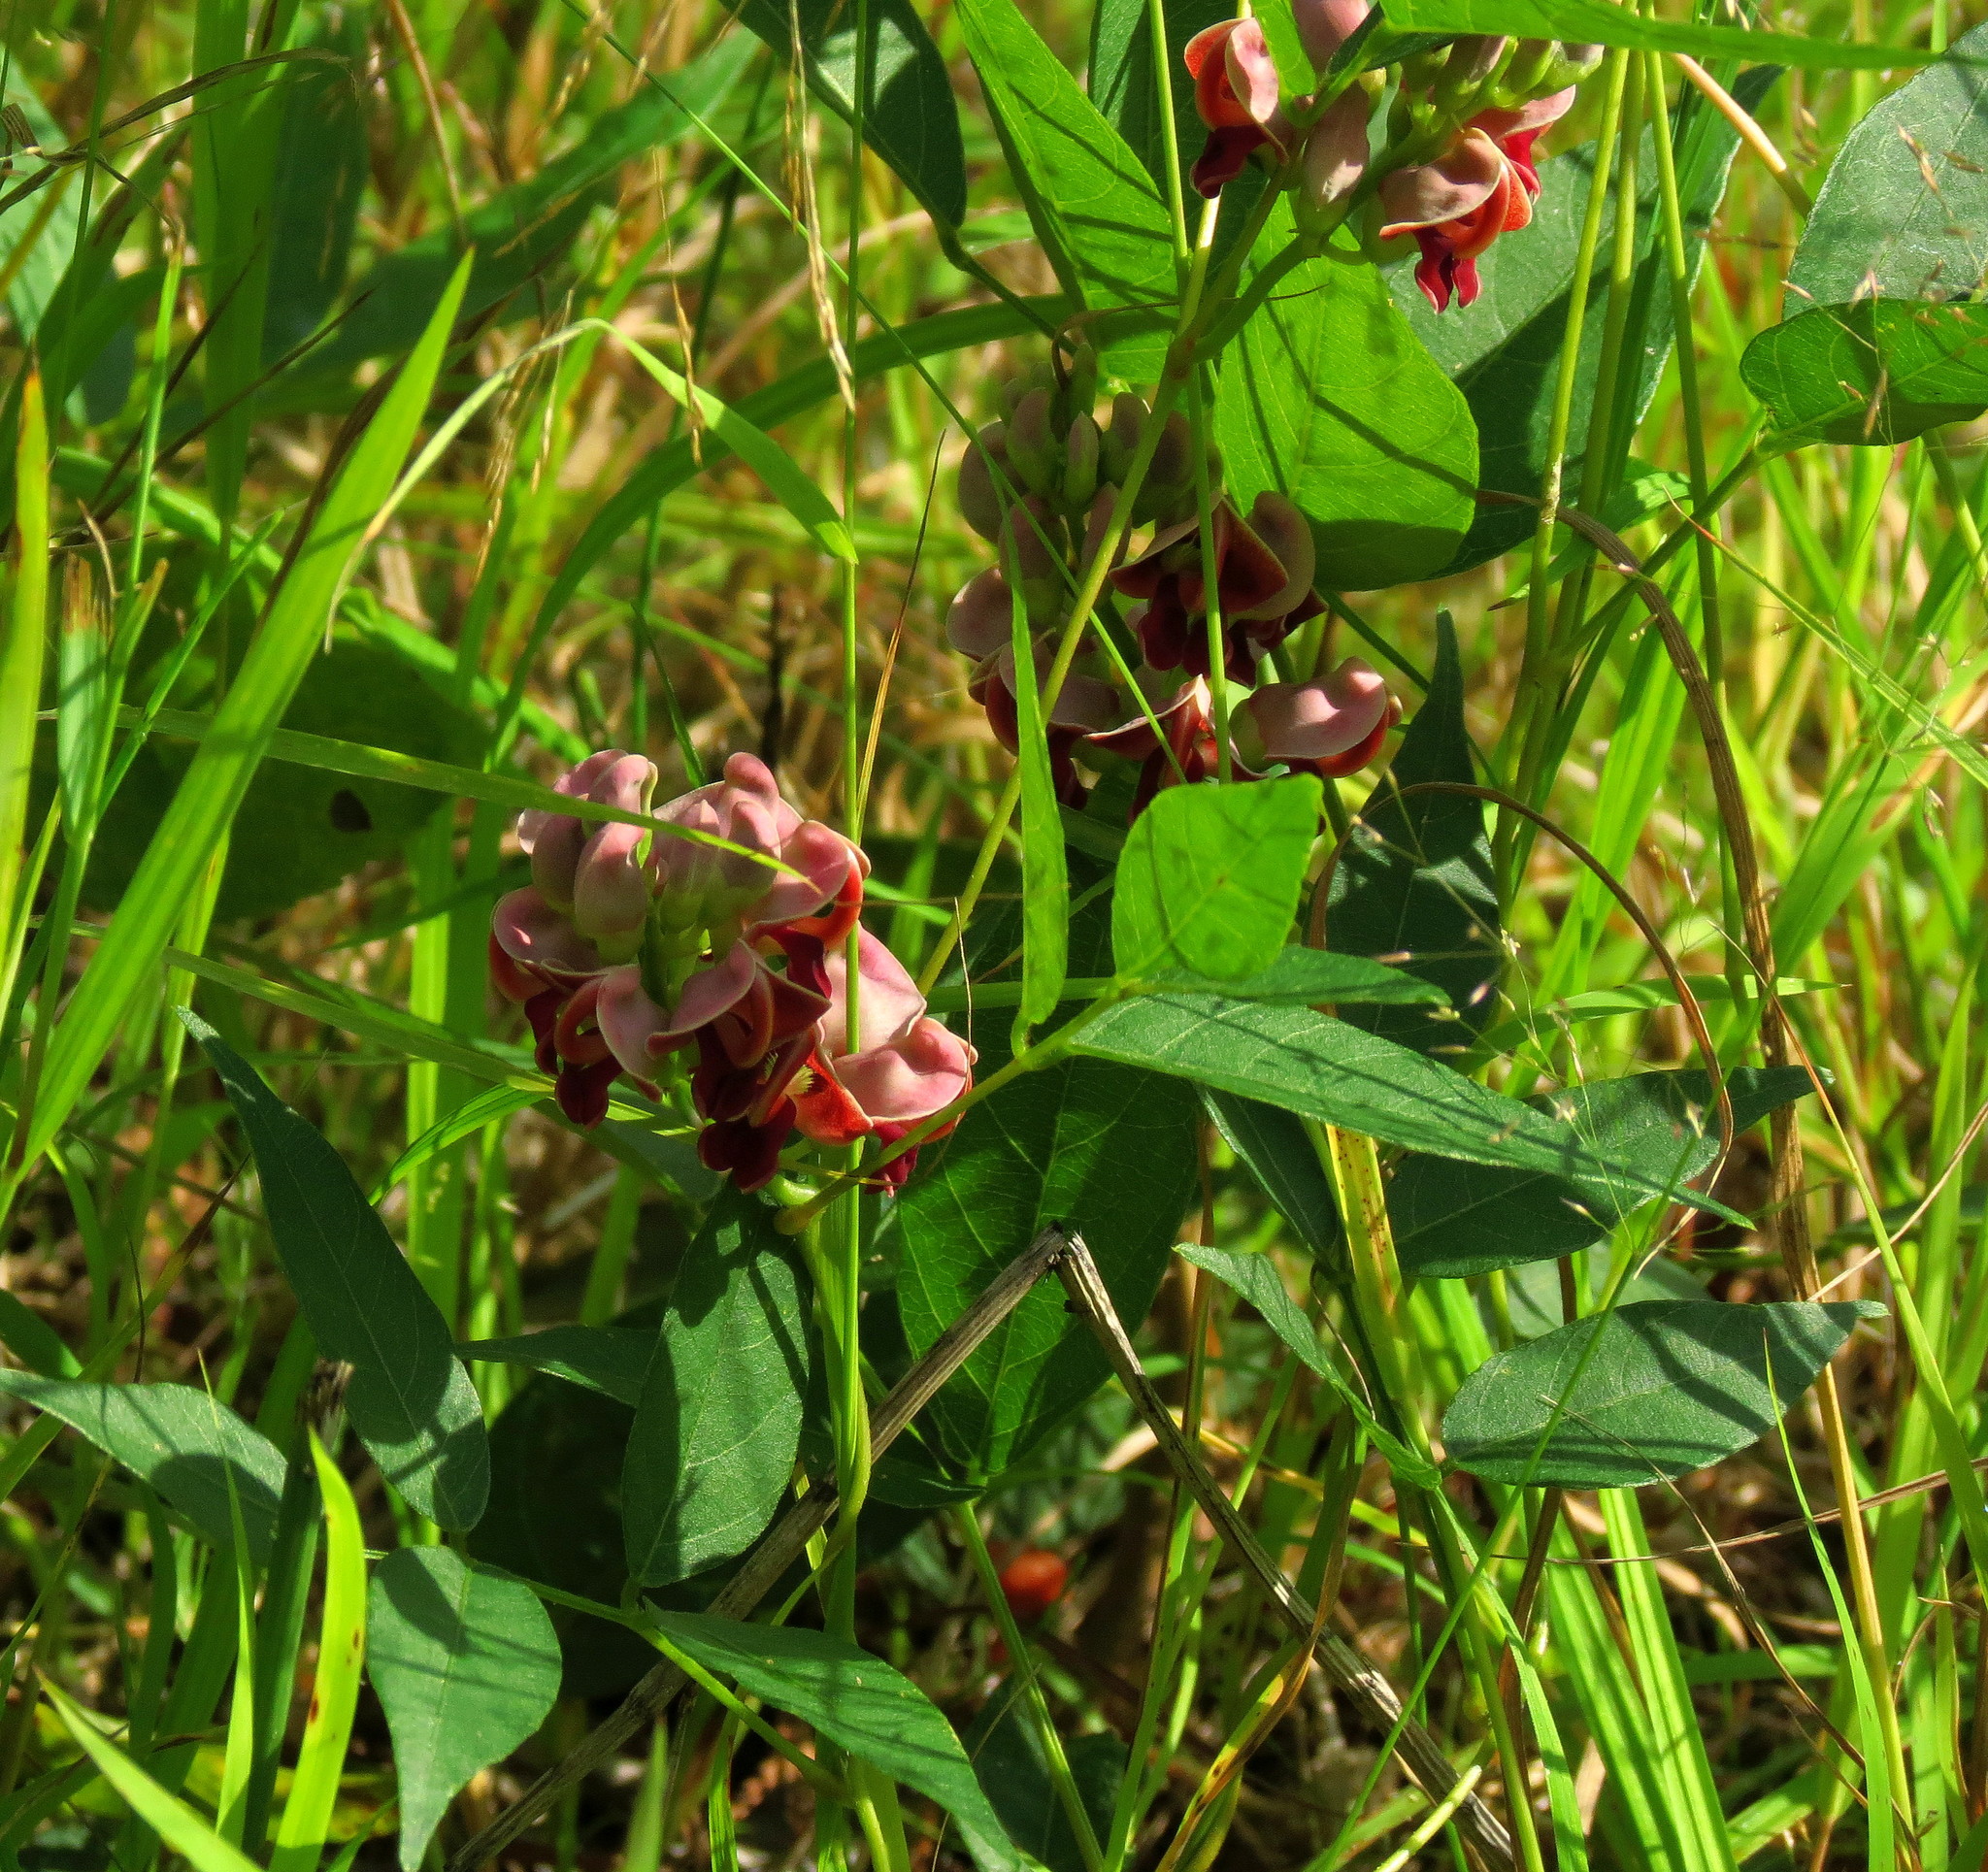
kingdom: Plantae
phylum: Tracheophyta
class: Magnoliopsida
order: Fabales
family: Fabaceae
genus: Apios
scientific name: Apios americana
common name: American potato-bean
